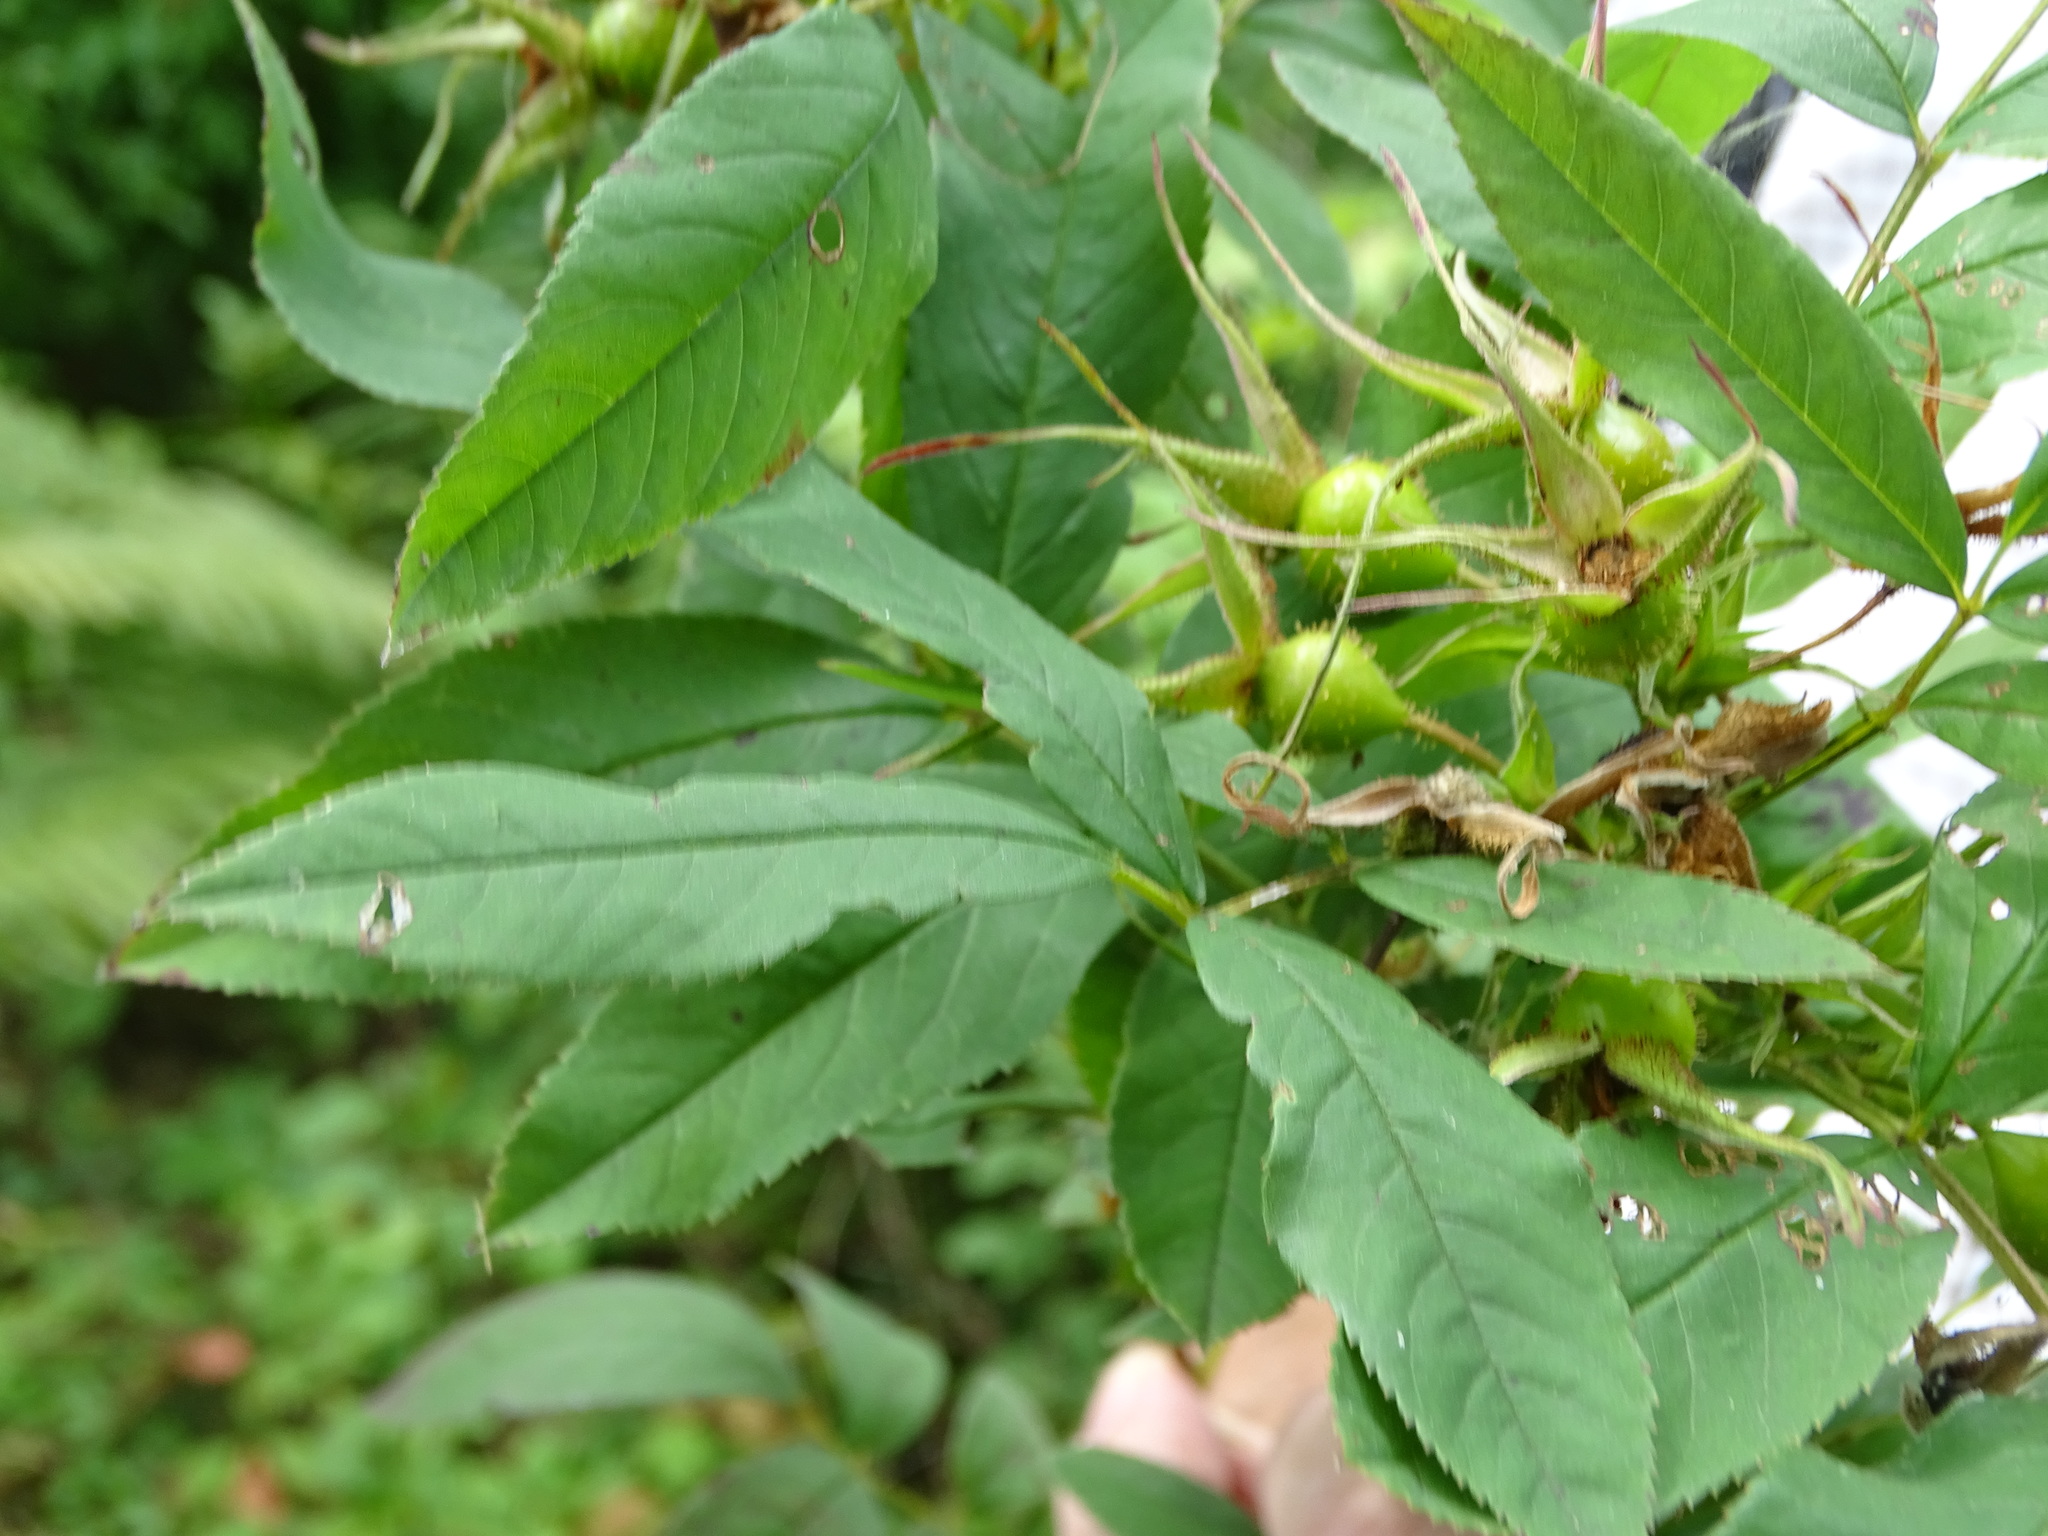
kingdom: Plantae
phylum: Tracheophyta
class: Magnoliopsida
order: Rosales
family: Rosaceae
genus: Rosa
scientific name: Rosa palustris
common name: Swamp rose
